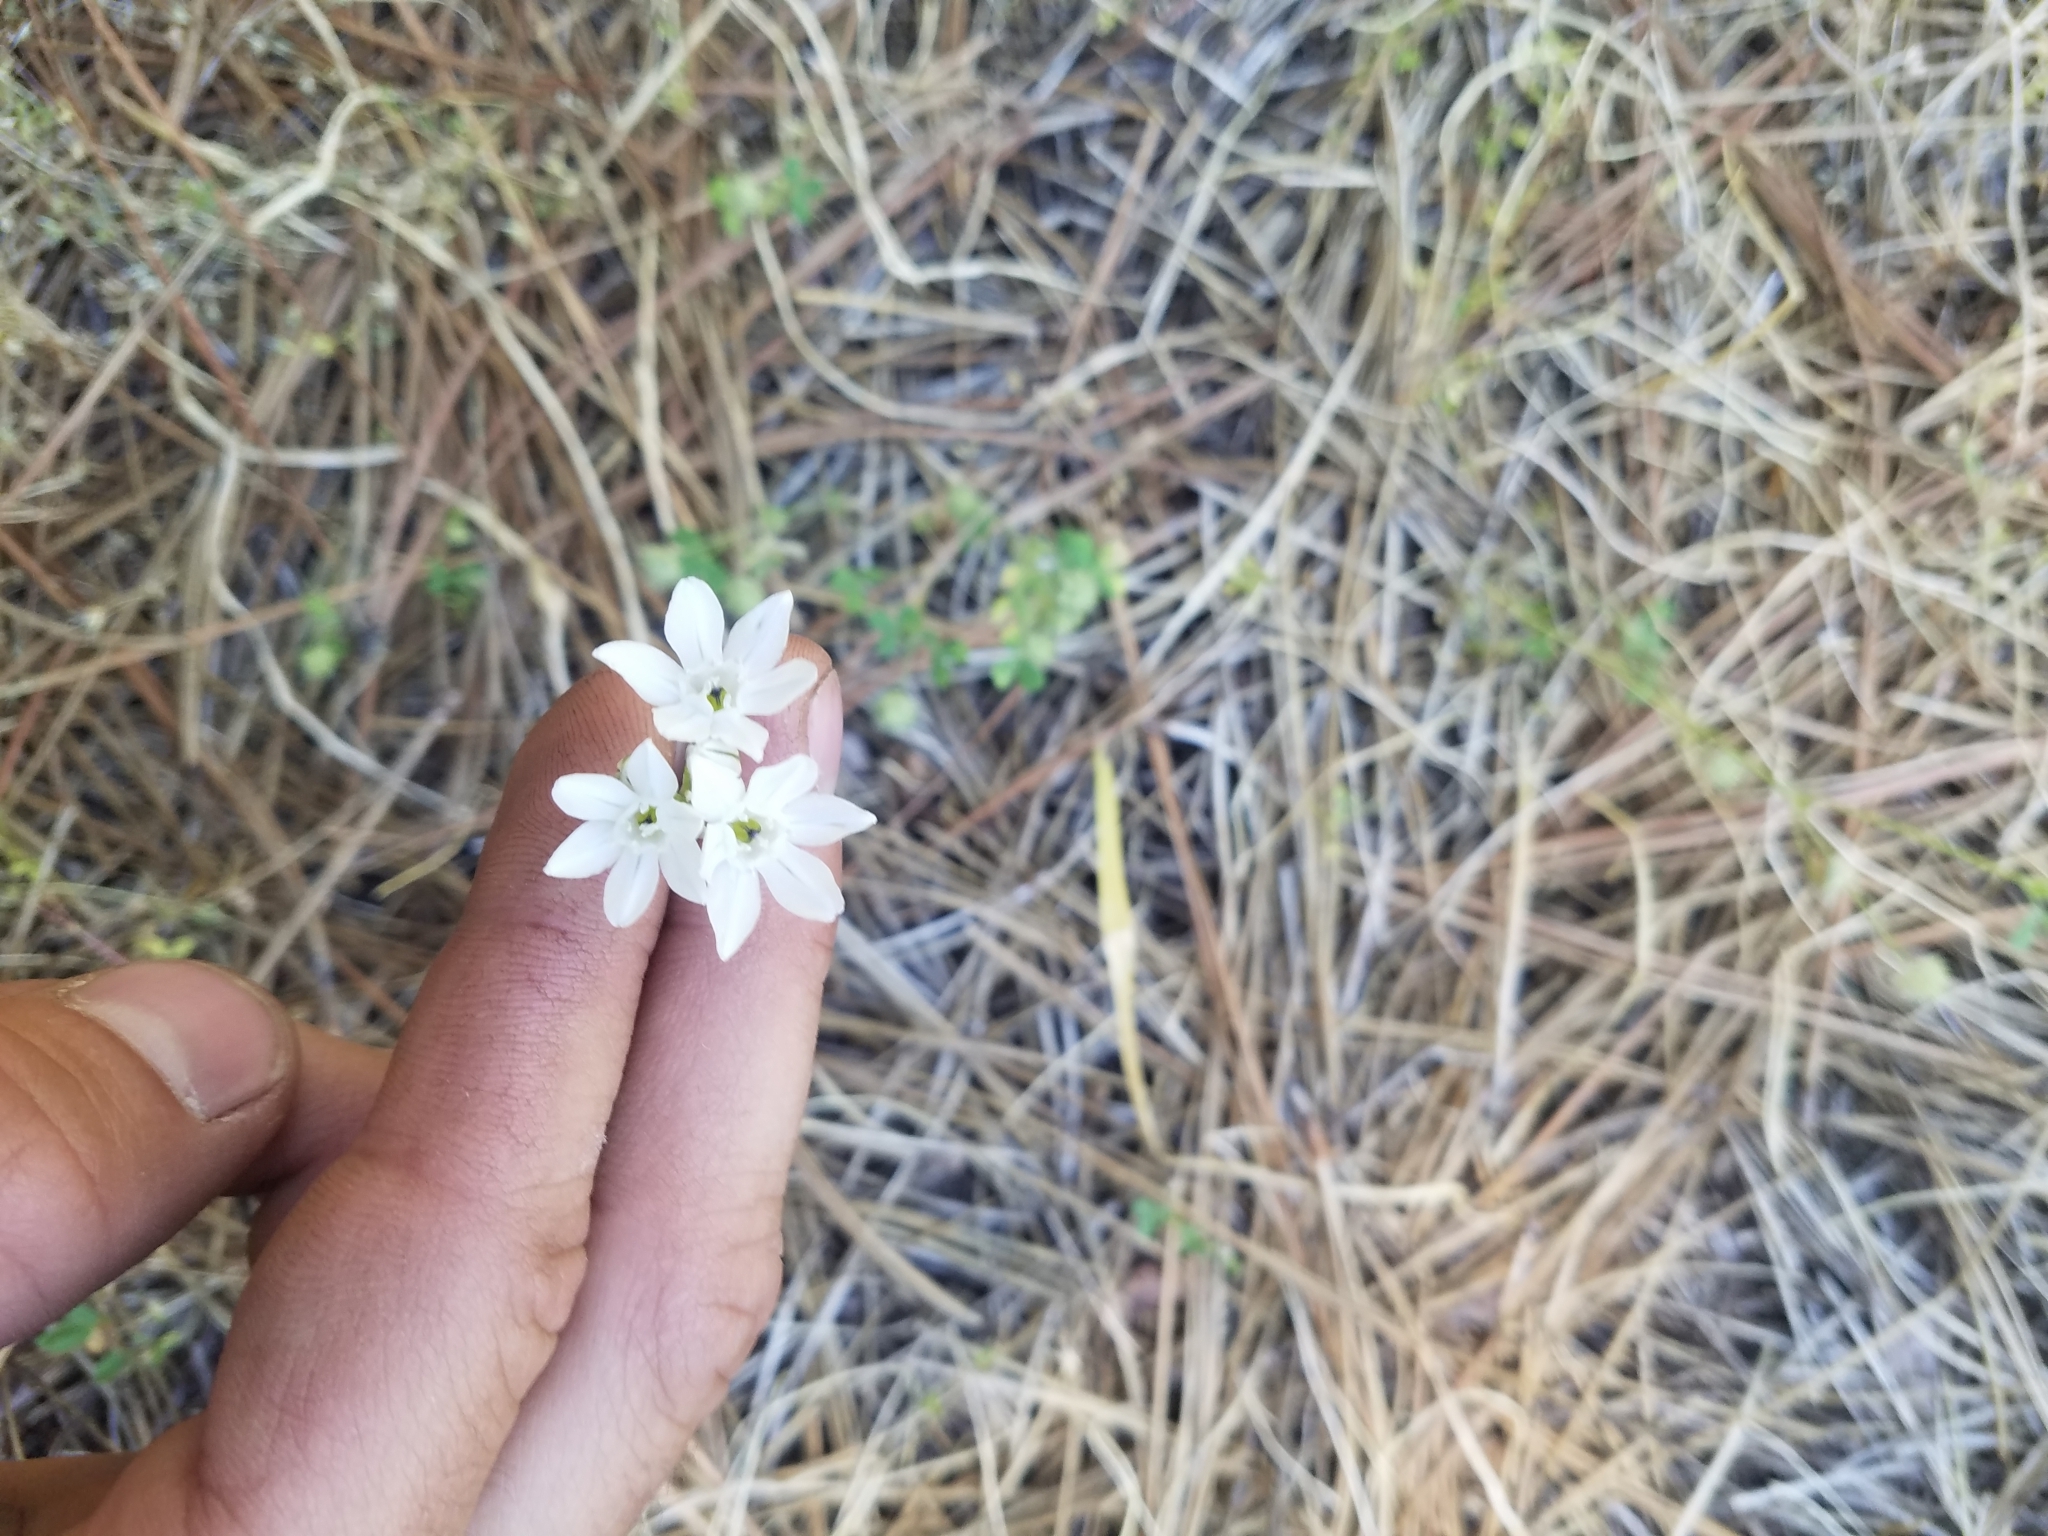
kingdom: Plantae
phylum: Tracheophyta
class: Liliopsida
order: Asparagales
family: Asparagaceae
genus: Triteleia
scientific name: Triteleia hyacinthina
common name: White brodiaea
